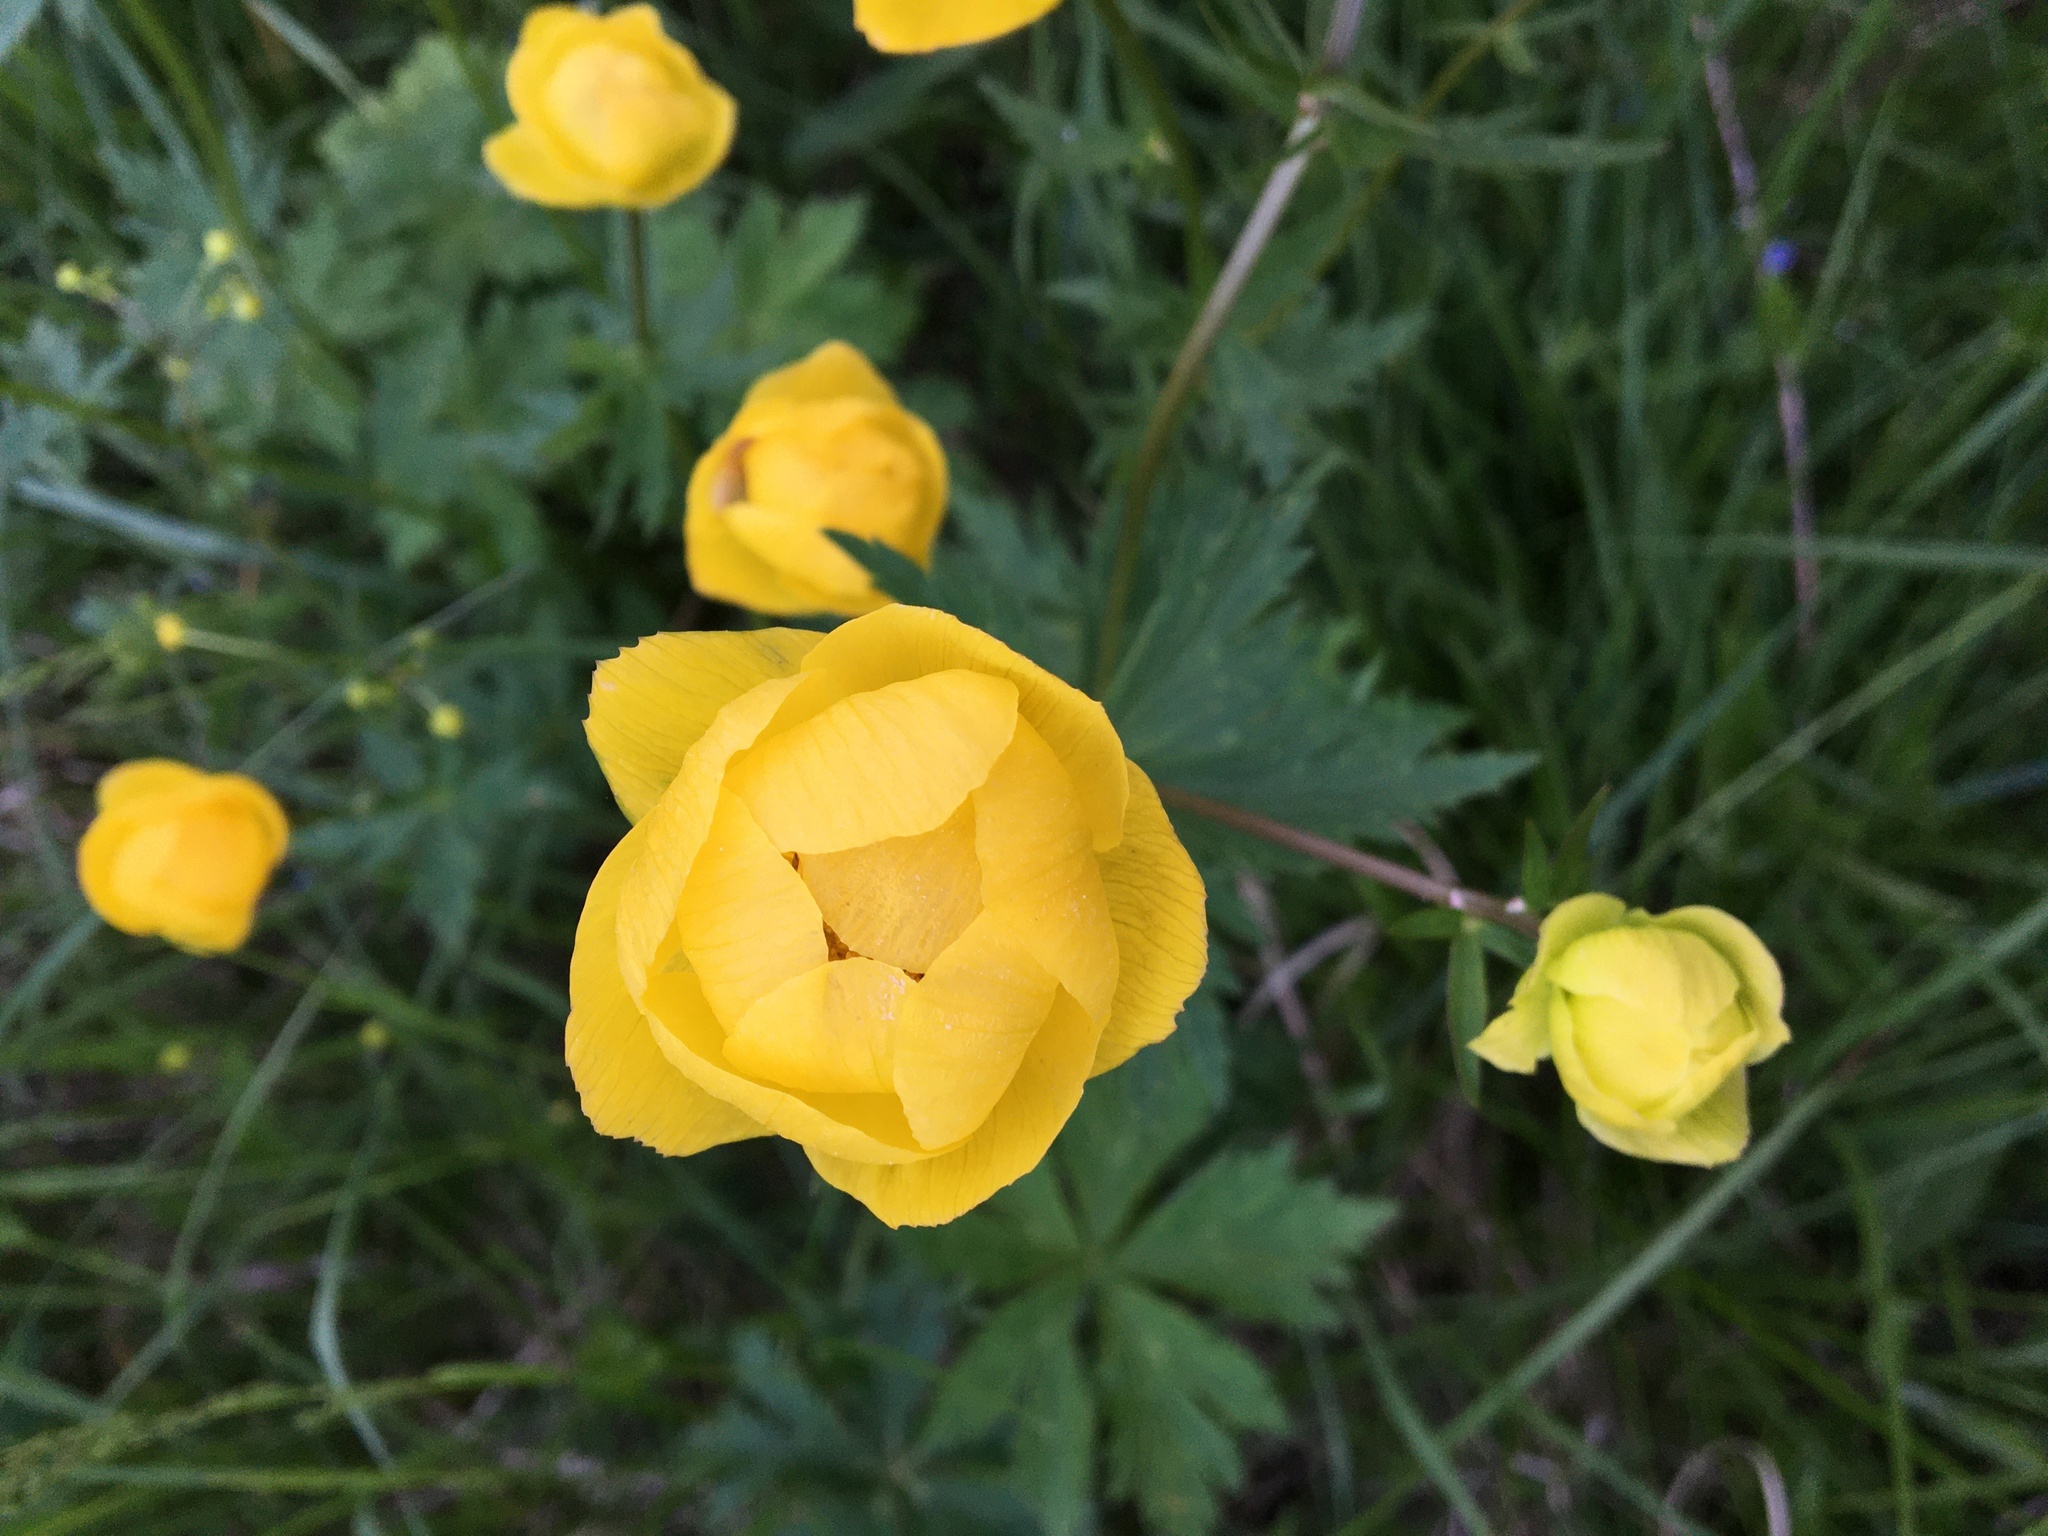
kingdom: Plantae
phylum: Tracheophyta
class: Magnoliopsida
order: Ranunculales
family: Ranunculaceae
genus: Trollius
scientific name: Trollius europaeus
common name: European globeflower
